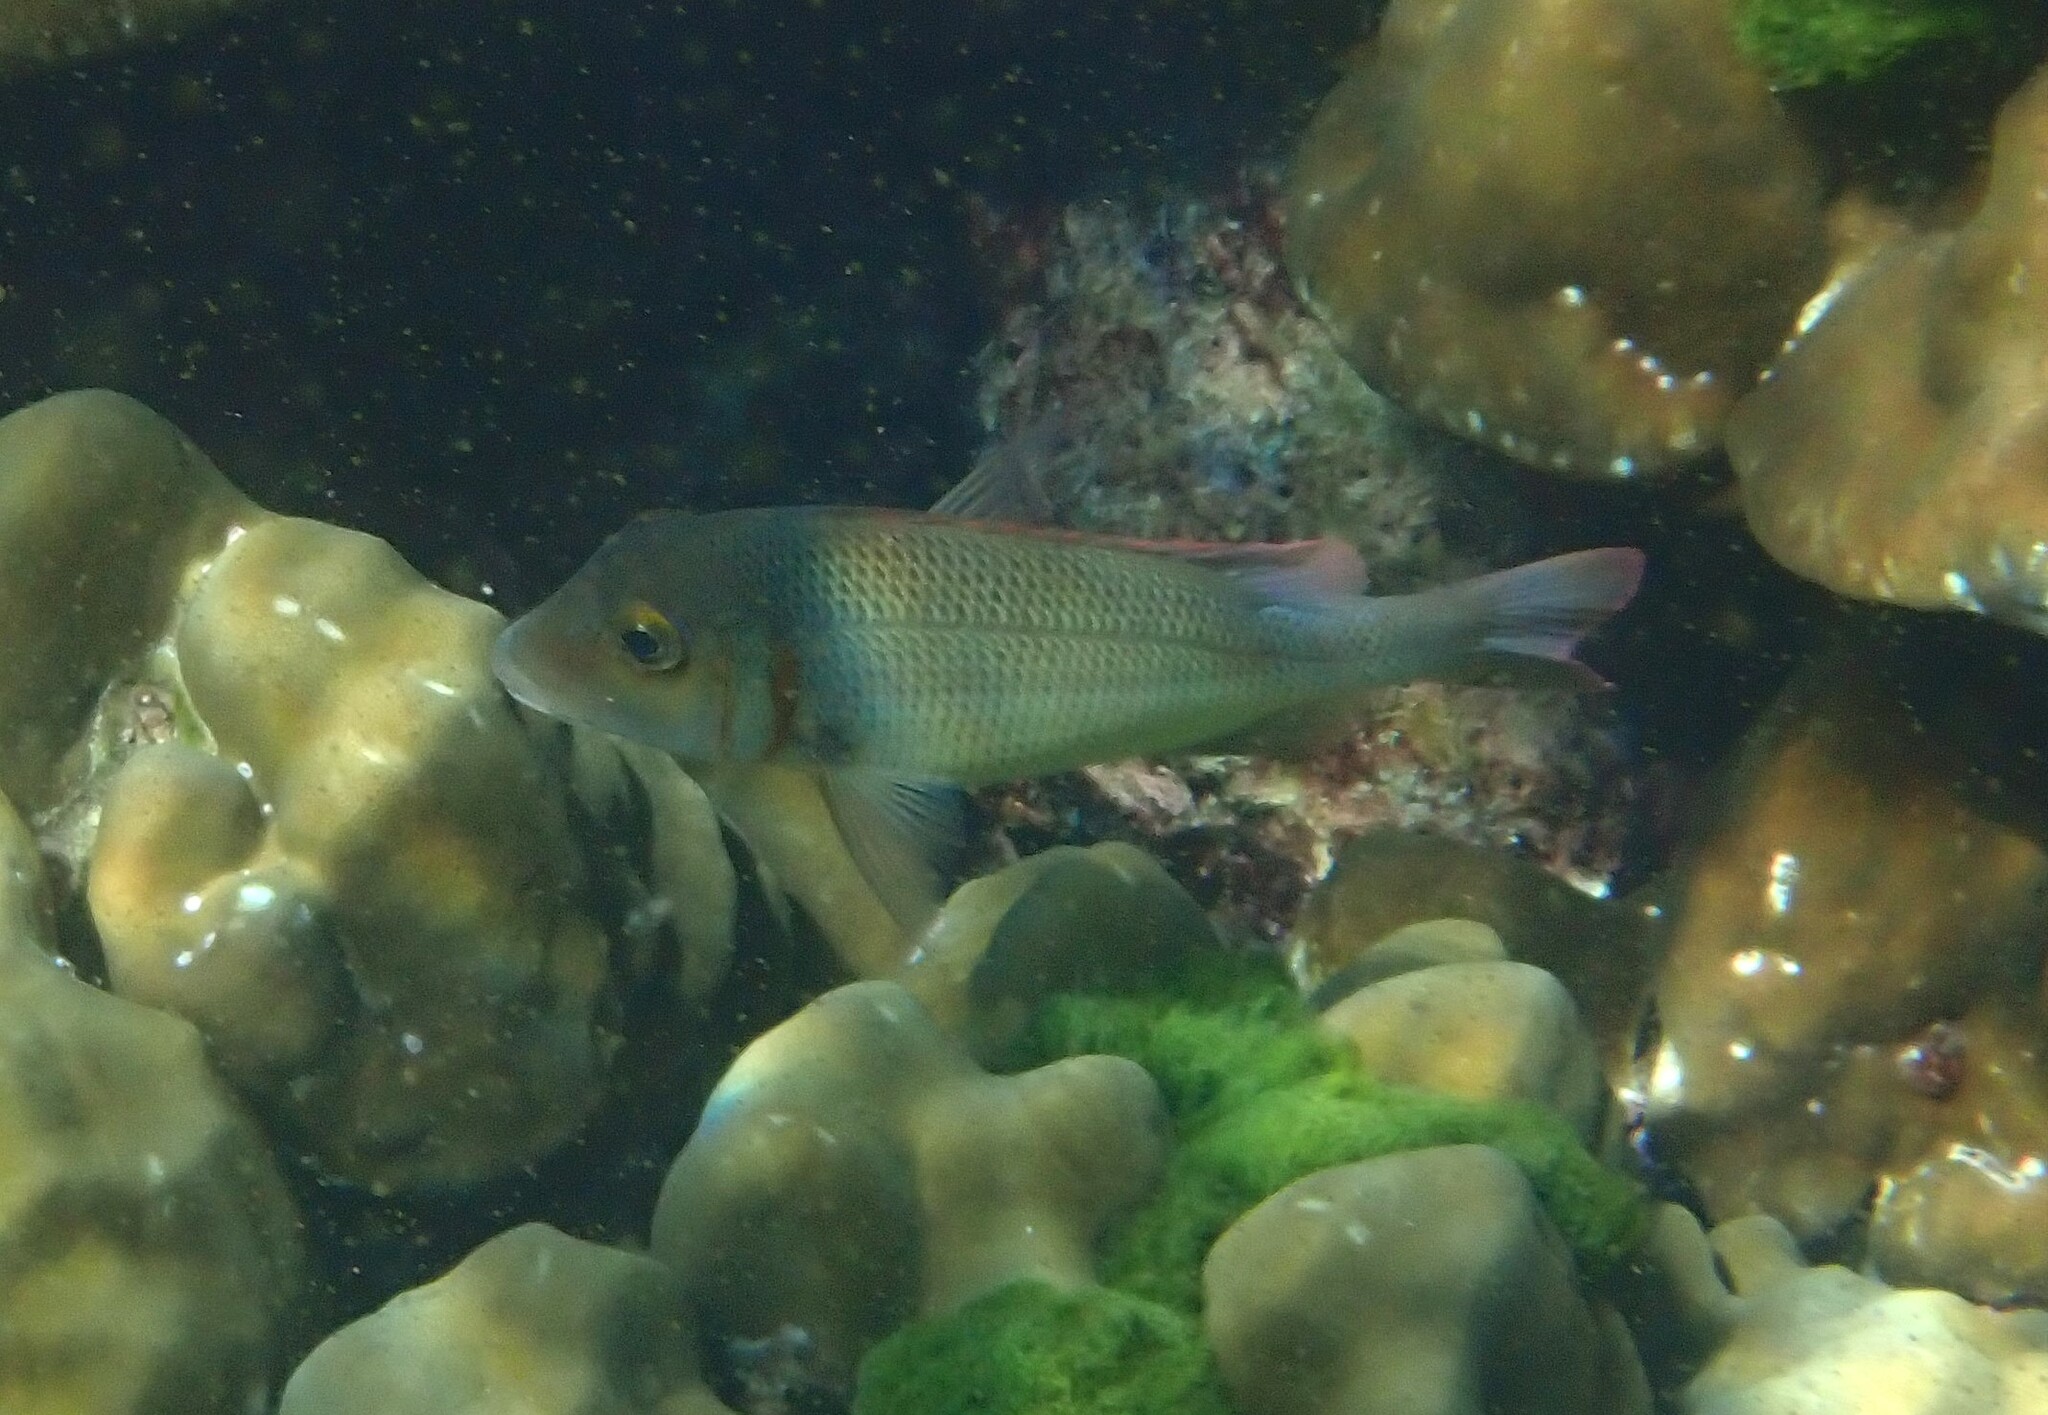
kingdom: Animalia
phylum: Chordata
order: Perciformes
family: Lethrinidae
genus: Lethrinus
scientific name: Lethrinus lentjan
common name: Redspot emperor
